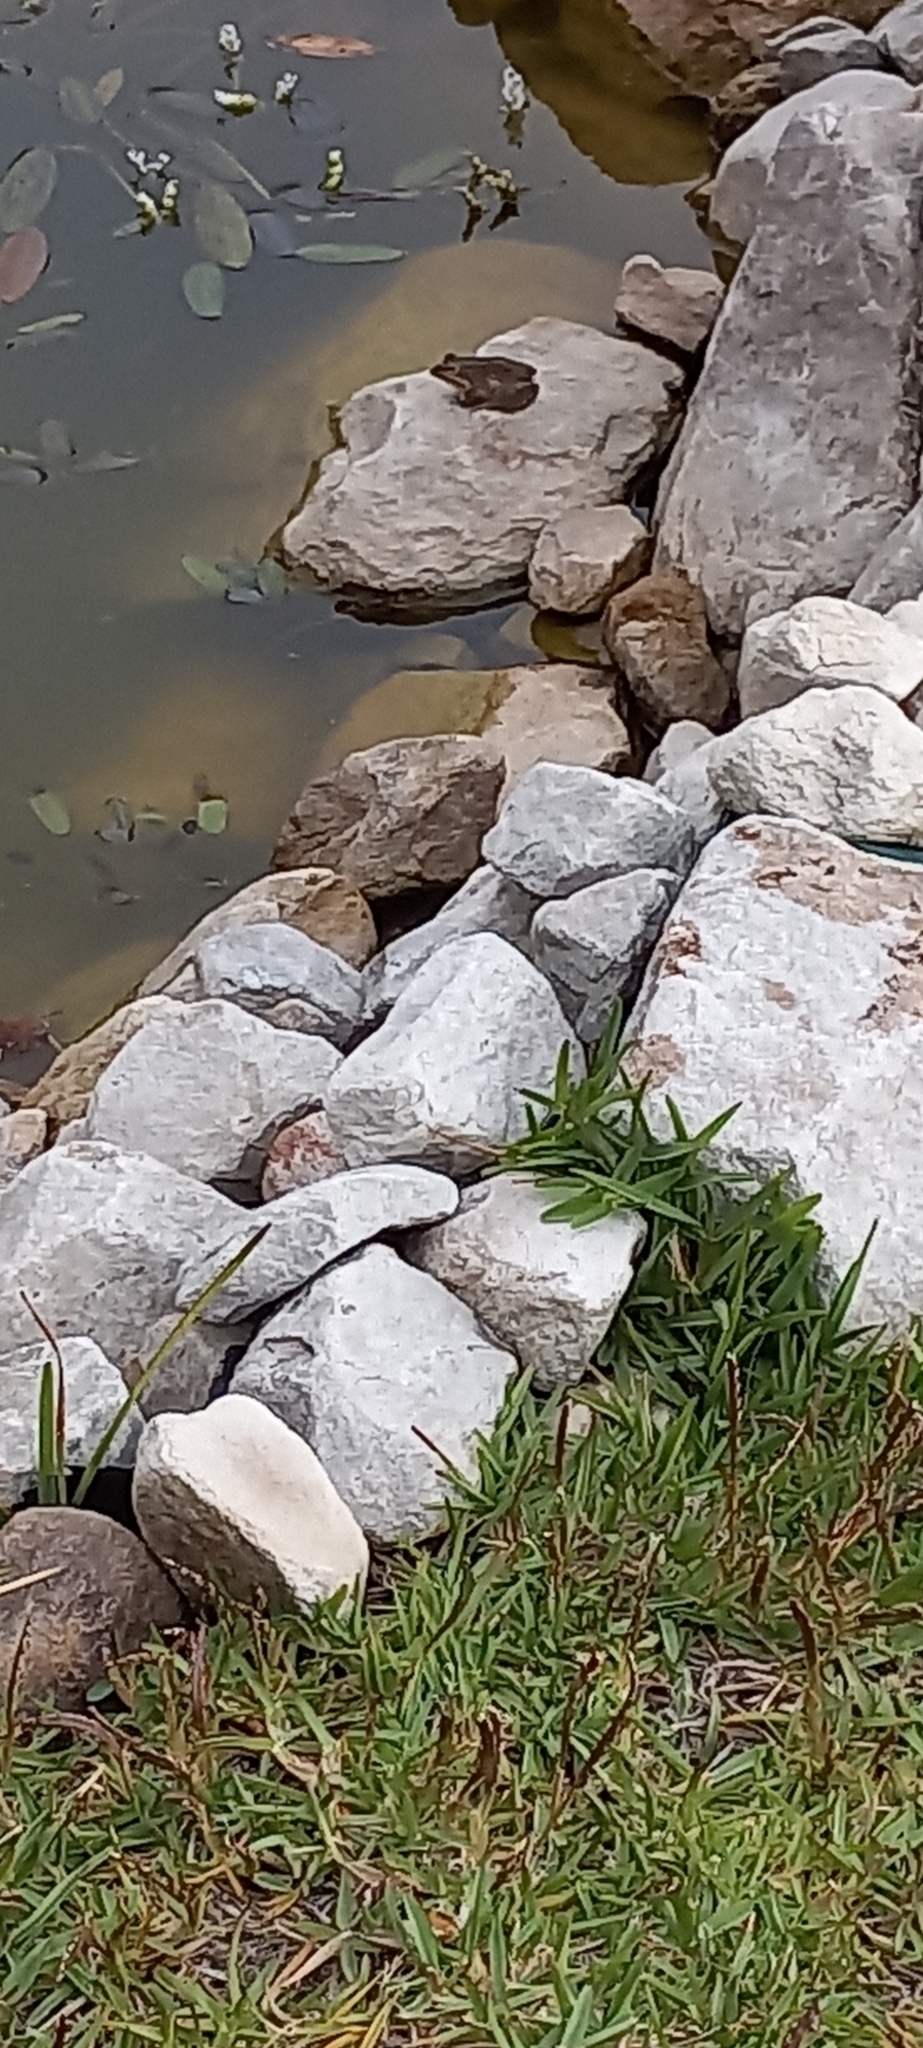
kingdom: Animalia
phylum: Chordata
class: Amphibia
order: Anura
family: Pyxicephalidae
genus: Amietia
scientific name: Amietia fuscigula
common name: Cape rana
